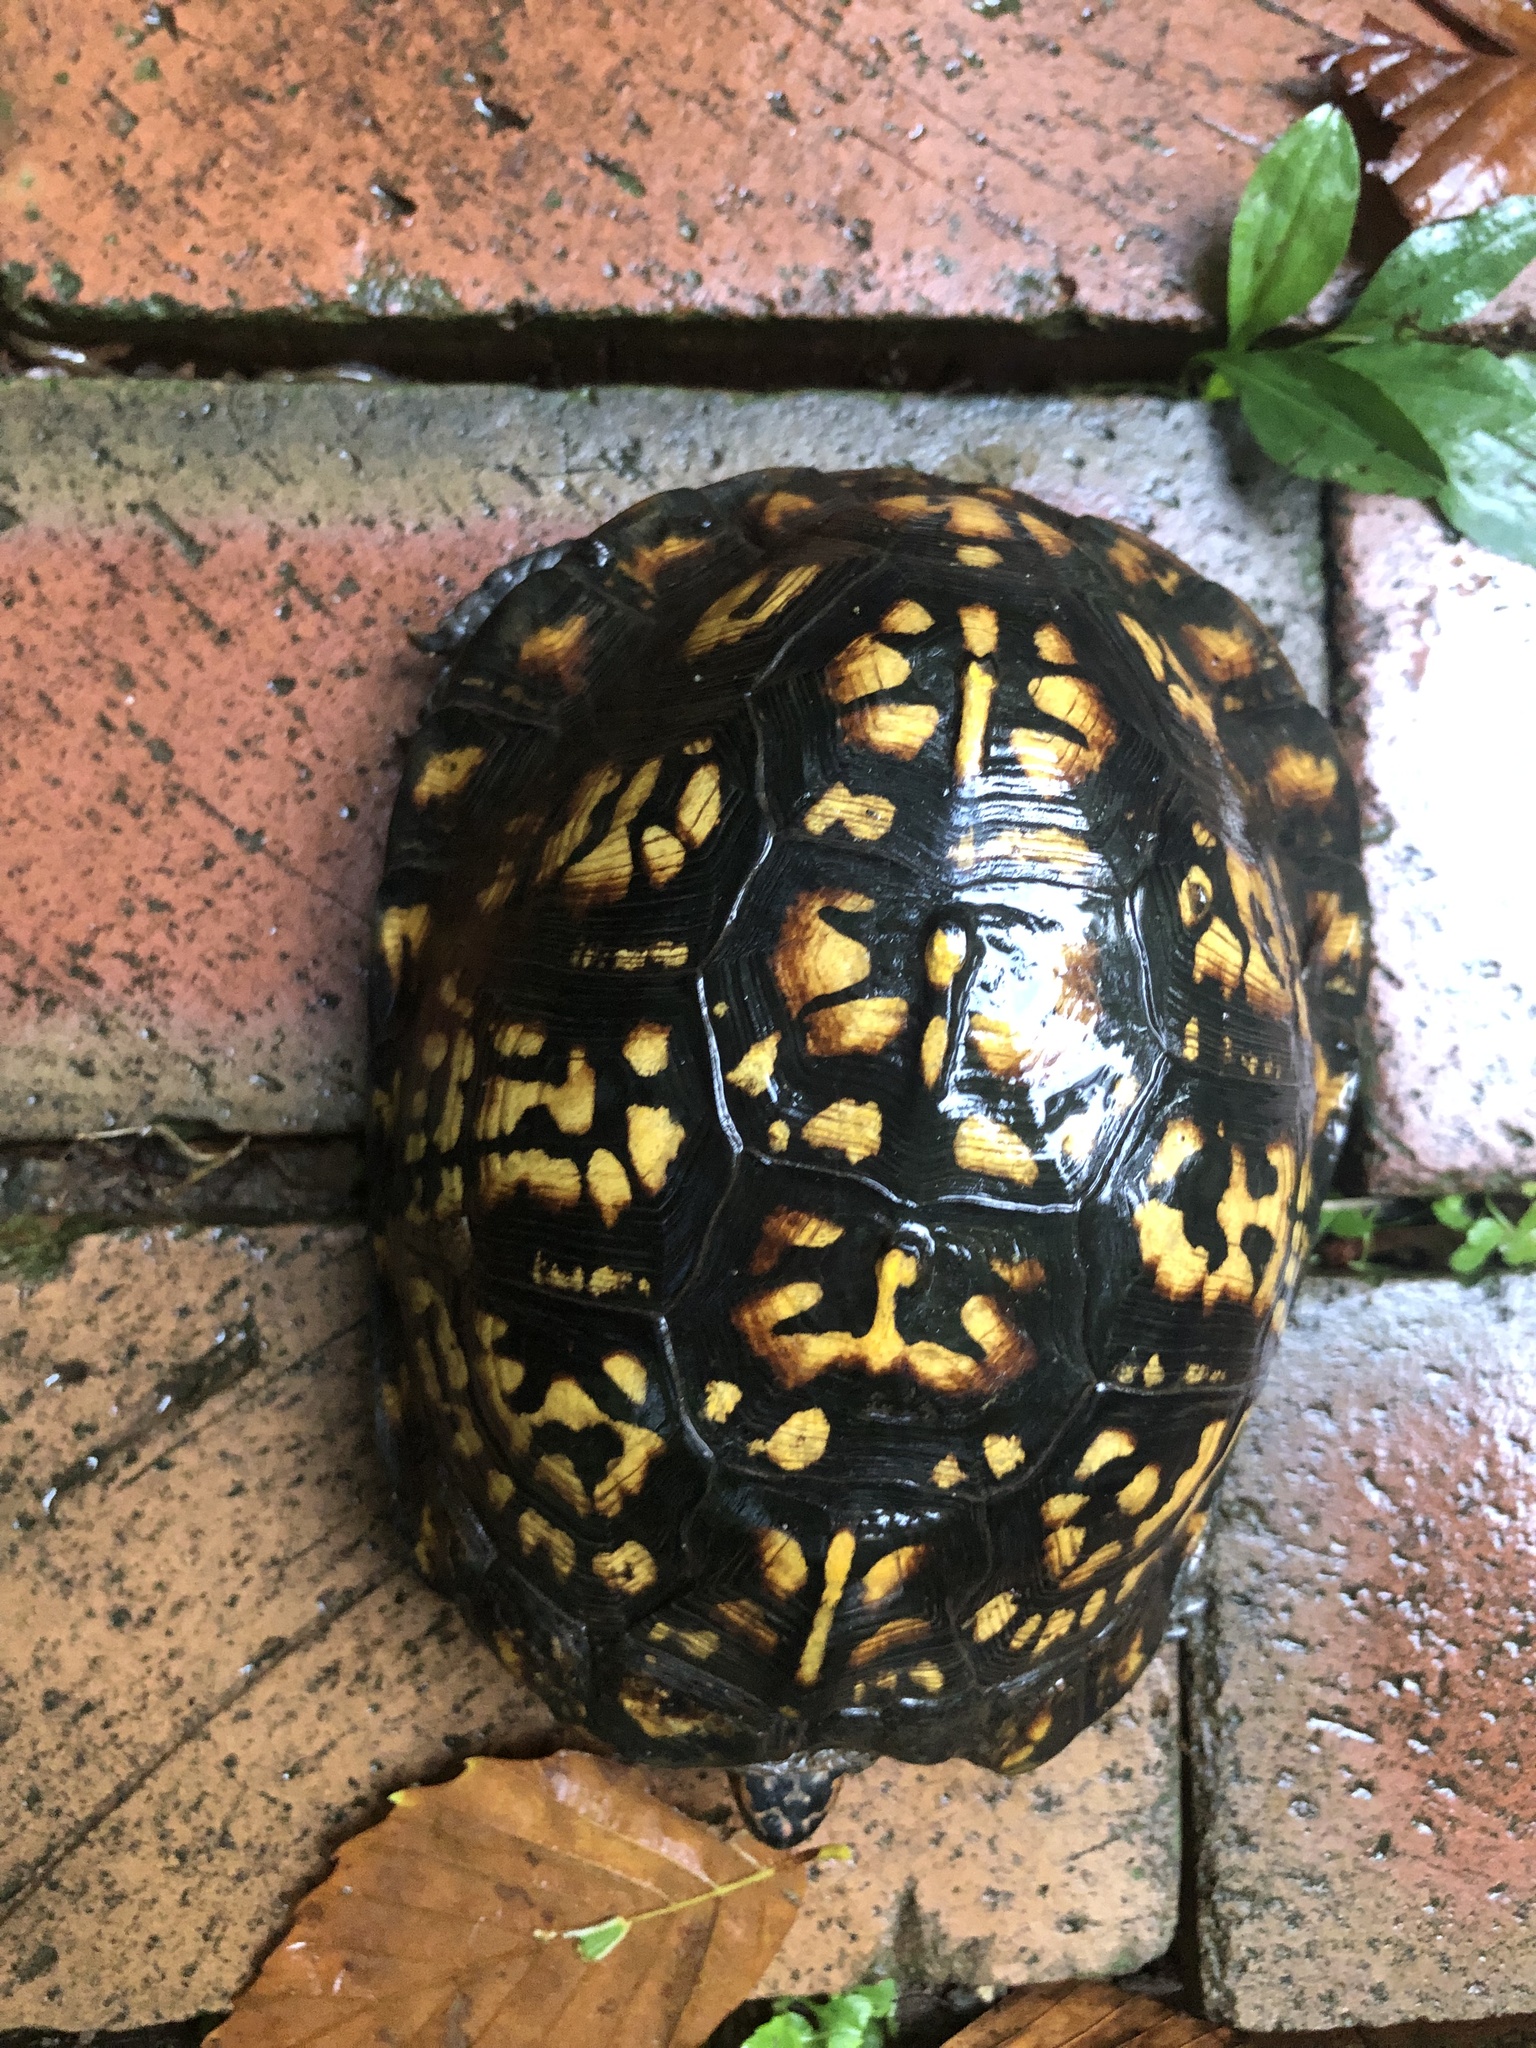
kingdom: Animalia
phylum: Chordata
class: Testudines
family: Emydidae
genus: Terrapene
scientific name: Terrapene carolina
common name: Common box turtle
